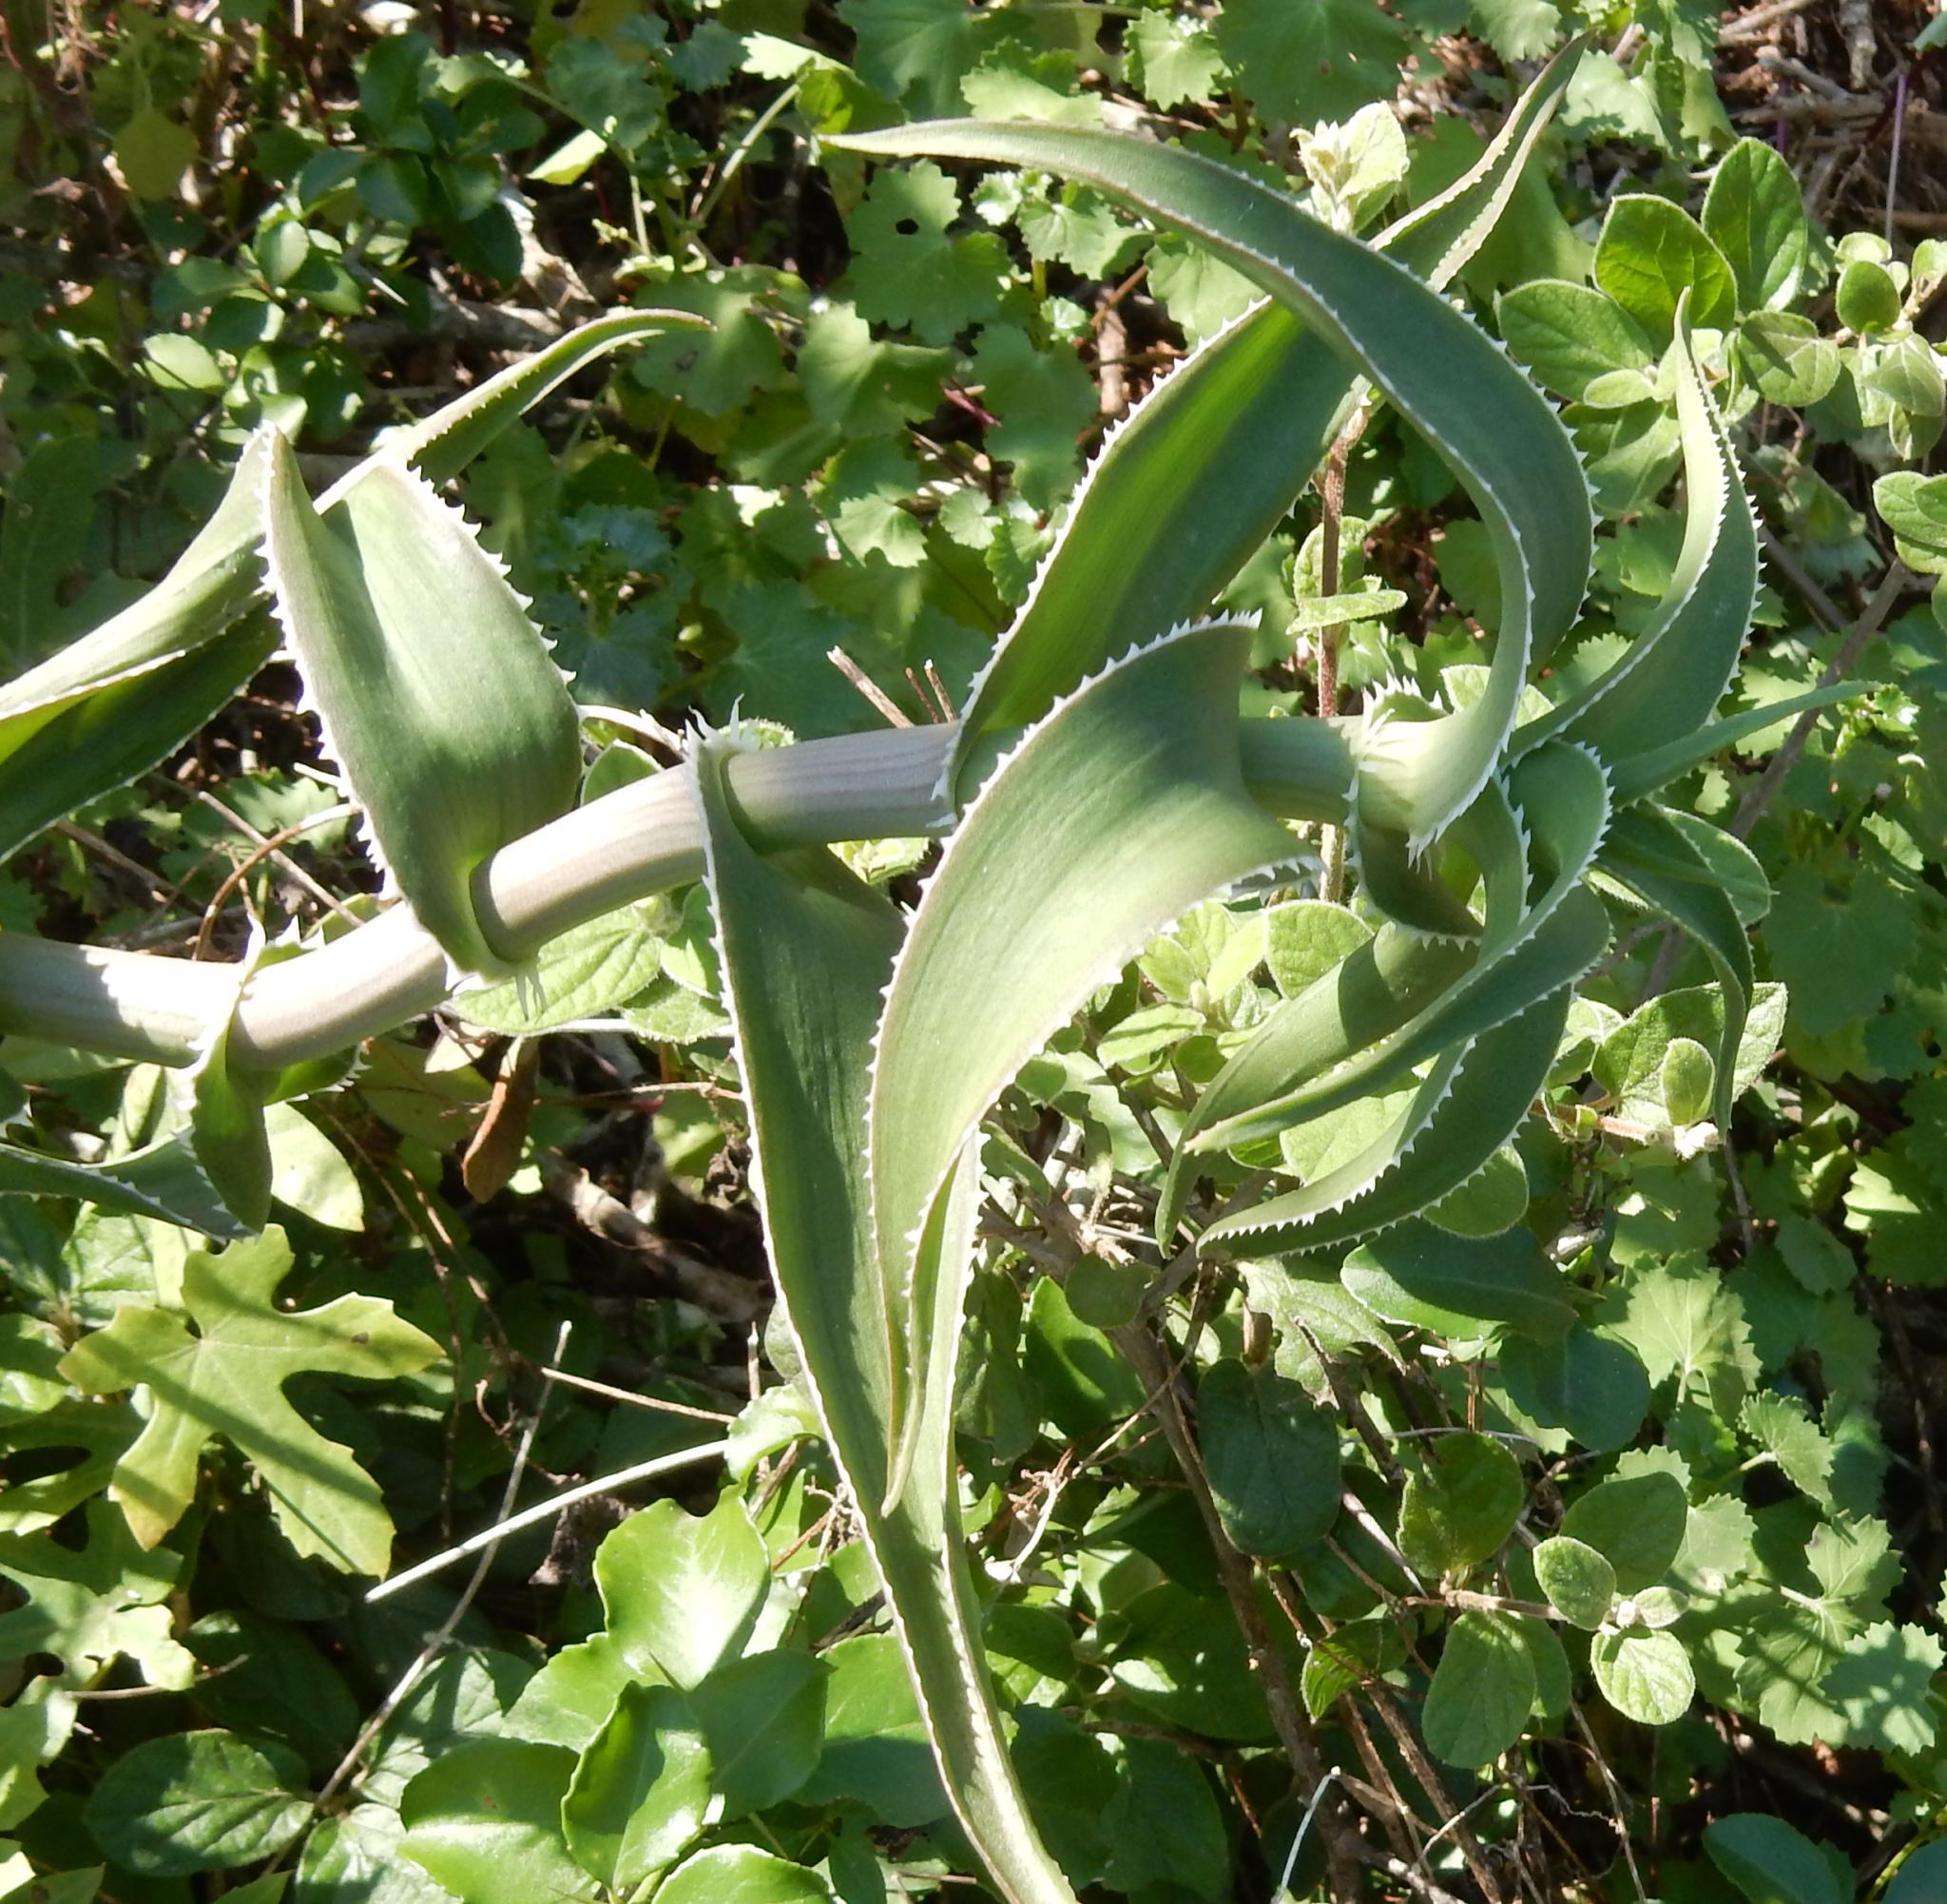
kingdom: Plantae
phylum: Tracheophyta
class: Liliopsida
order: Asparagales
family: Asphodelaceae
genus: Aloiampelos
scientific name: Aloiampelos ciliaris
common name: Climbing aloe
